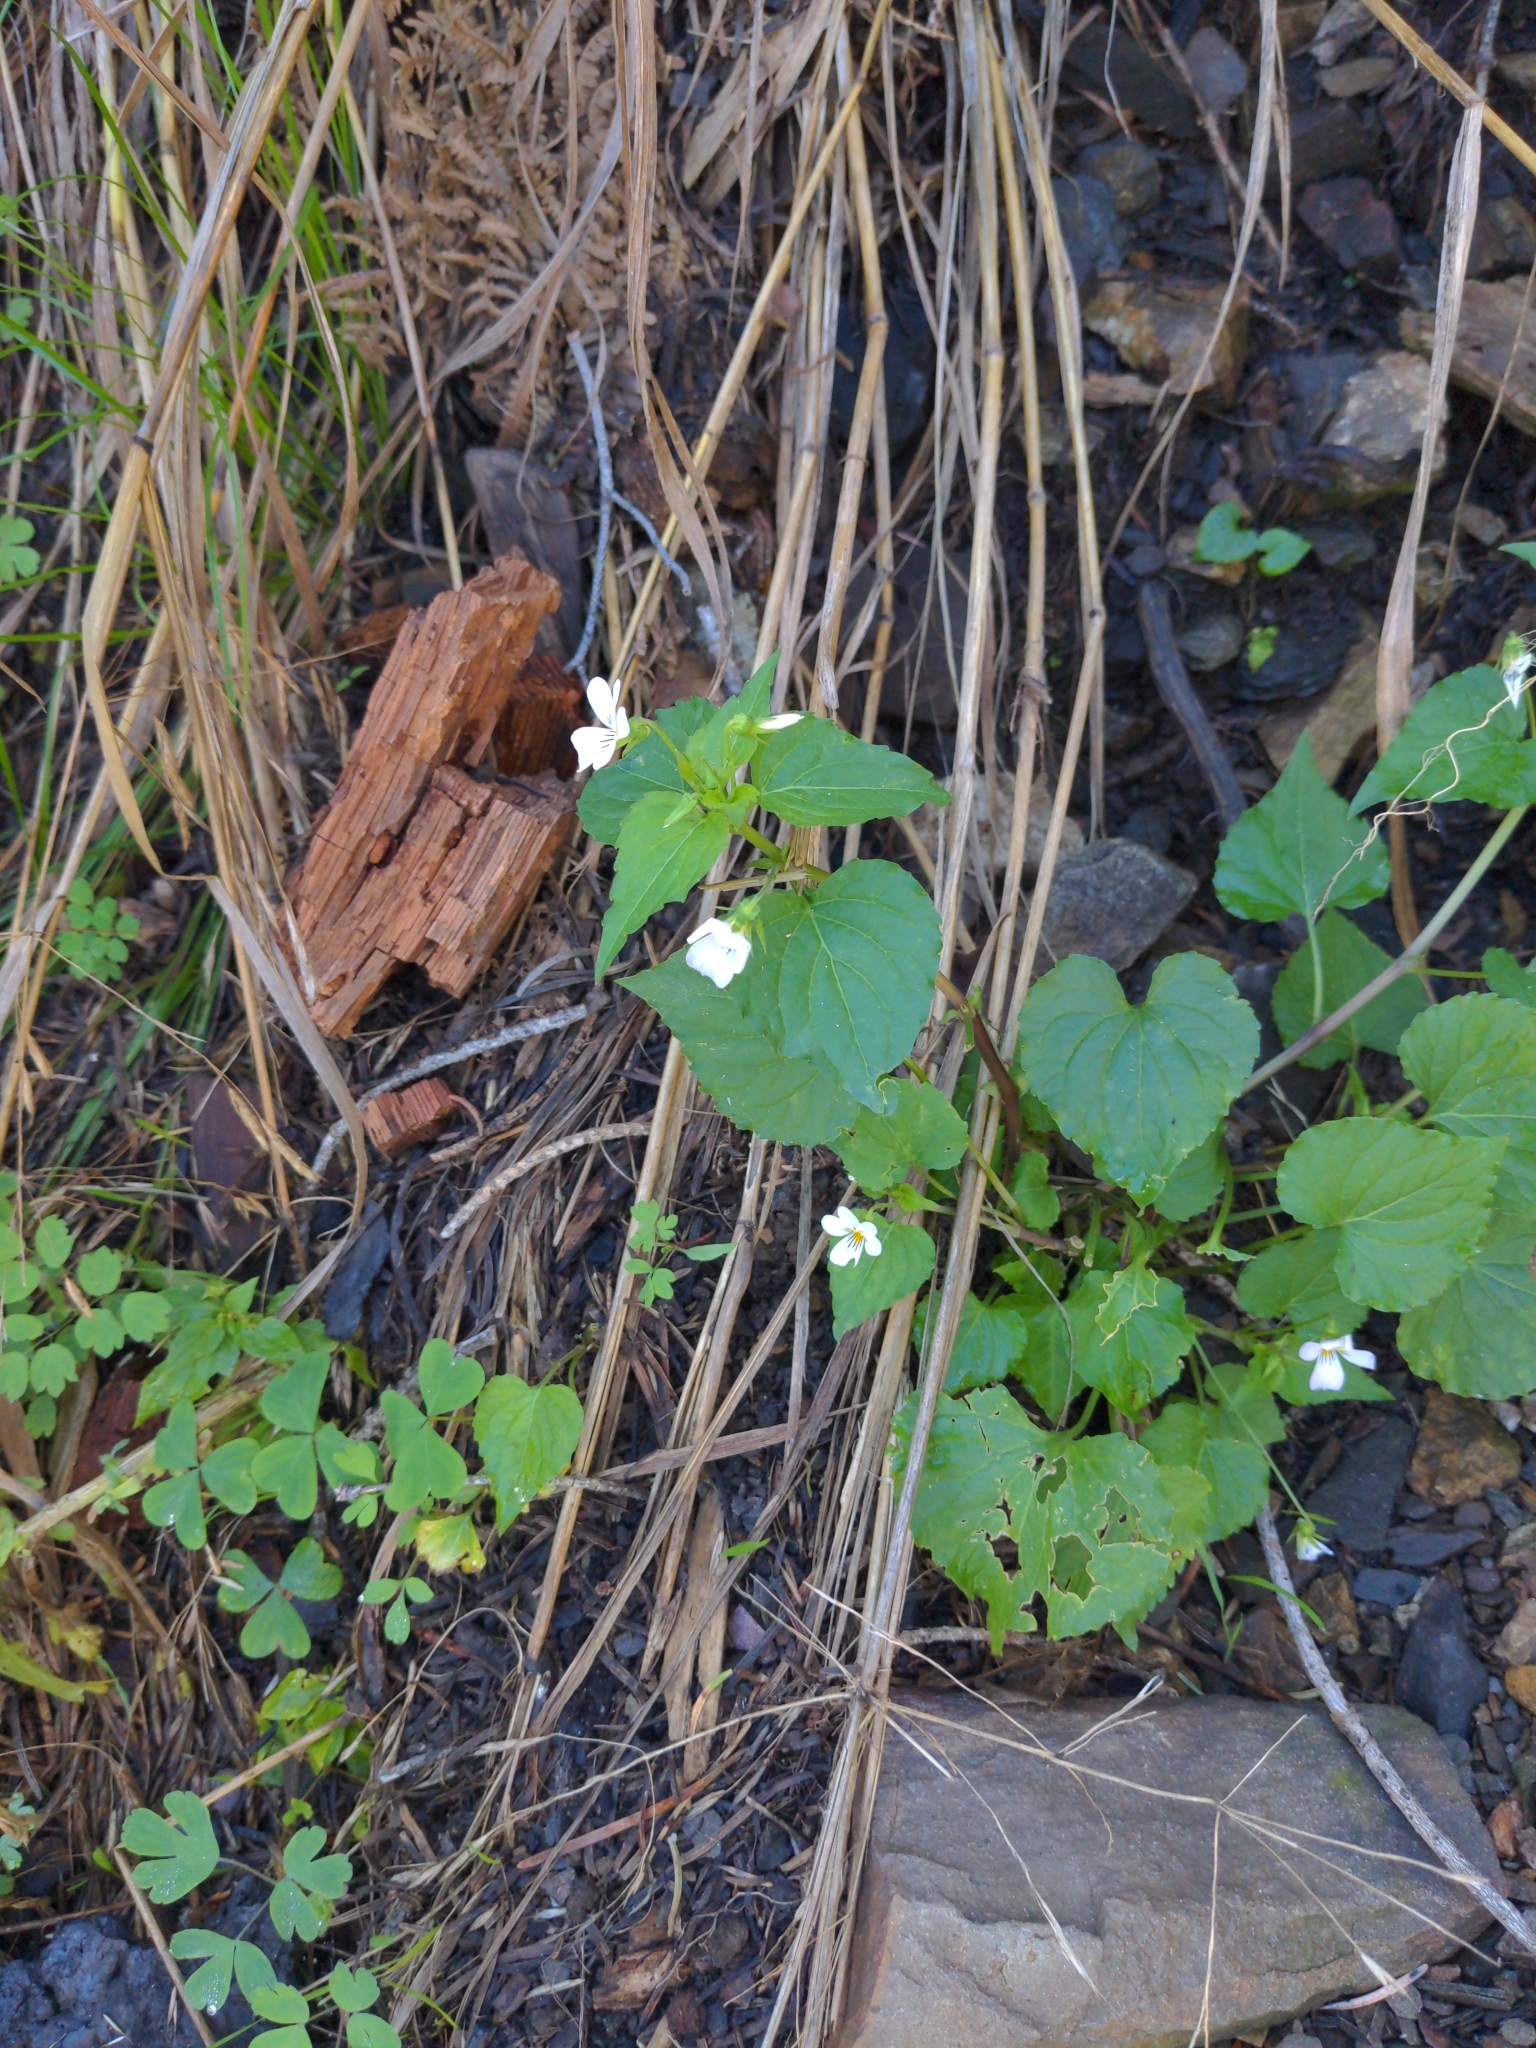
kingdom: Plantae
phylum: Tracheophyta
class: Magnoliopsida
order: Malpighiales
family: Violaceae
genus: Viola
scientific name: Viola canadensis
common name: Canada violet
